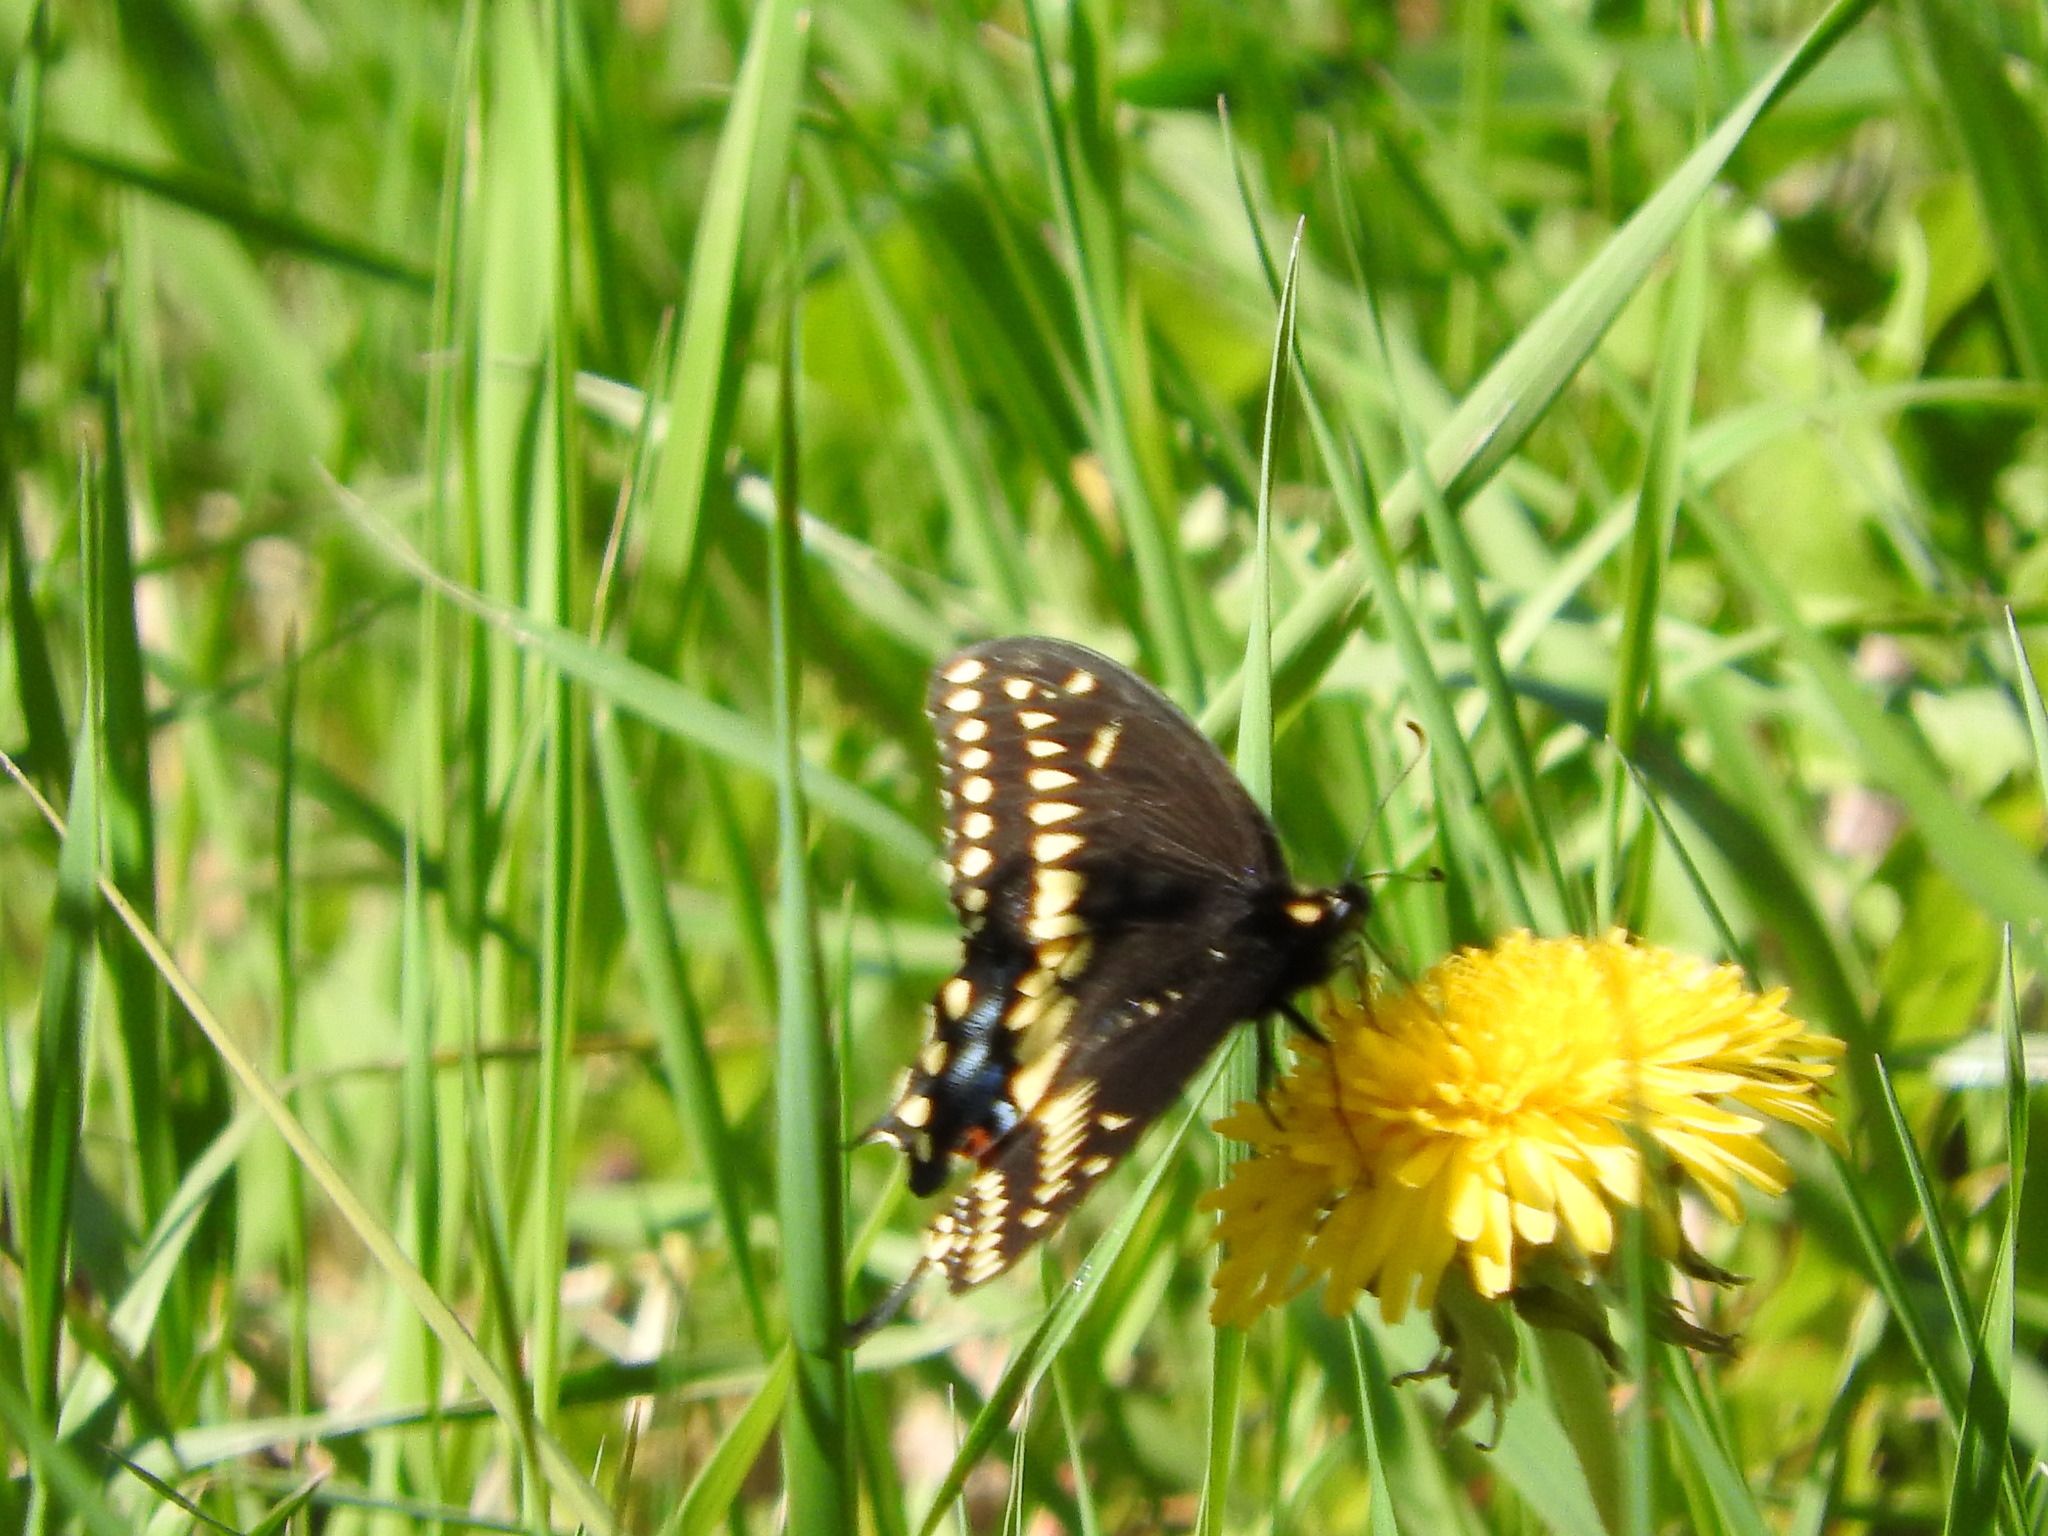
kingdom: Animalia
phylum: Arthropoda
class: Insecta
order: Lepidoptera
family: Papilionidae
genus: Papilio
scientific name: Papilio polyxenes
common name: Black swallowtail
